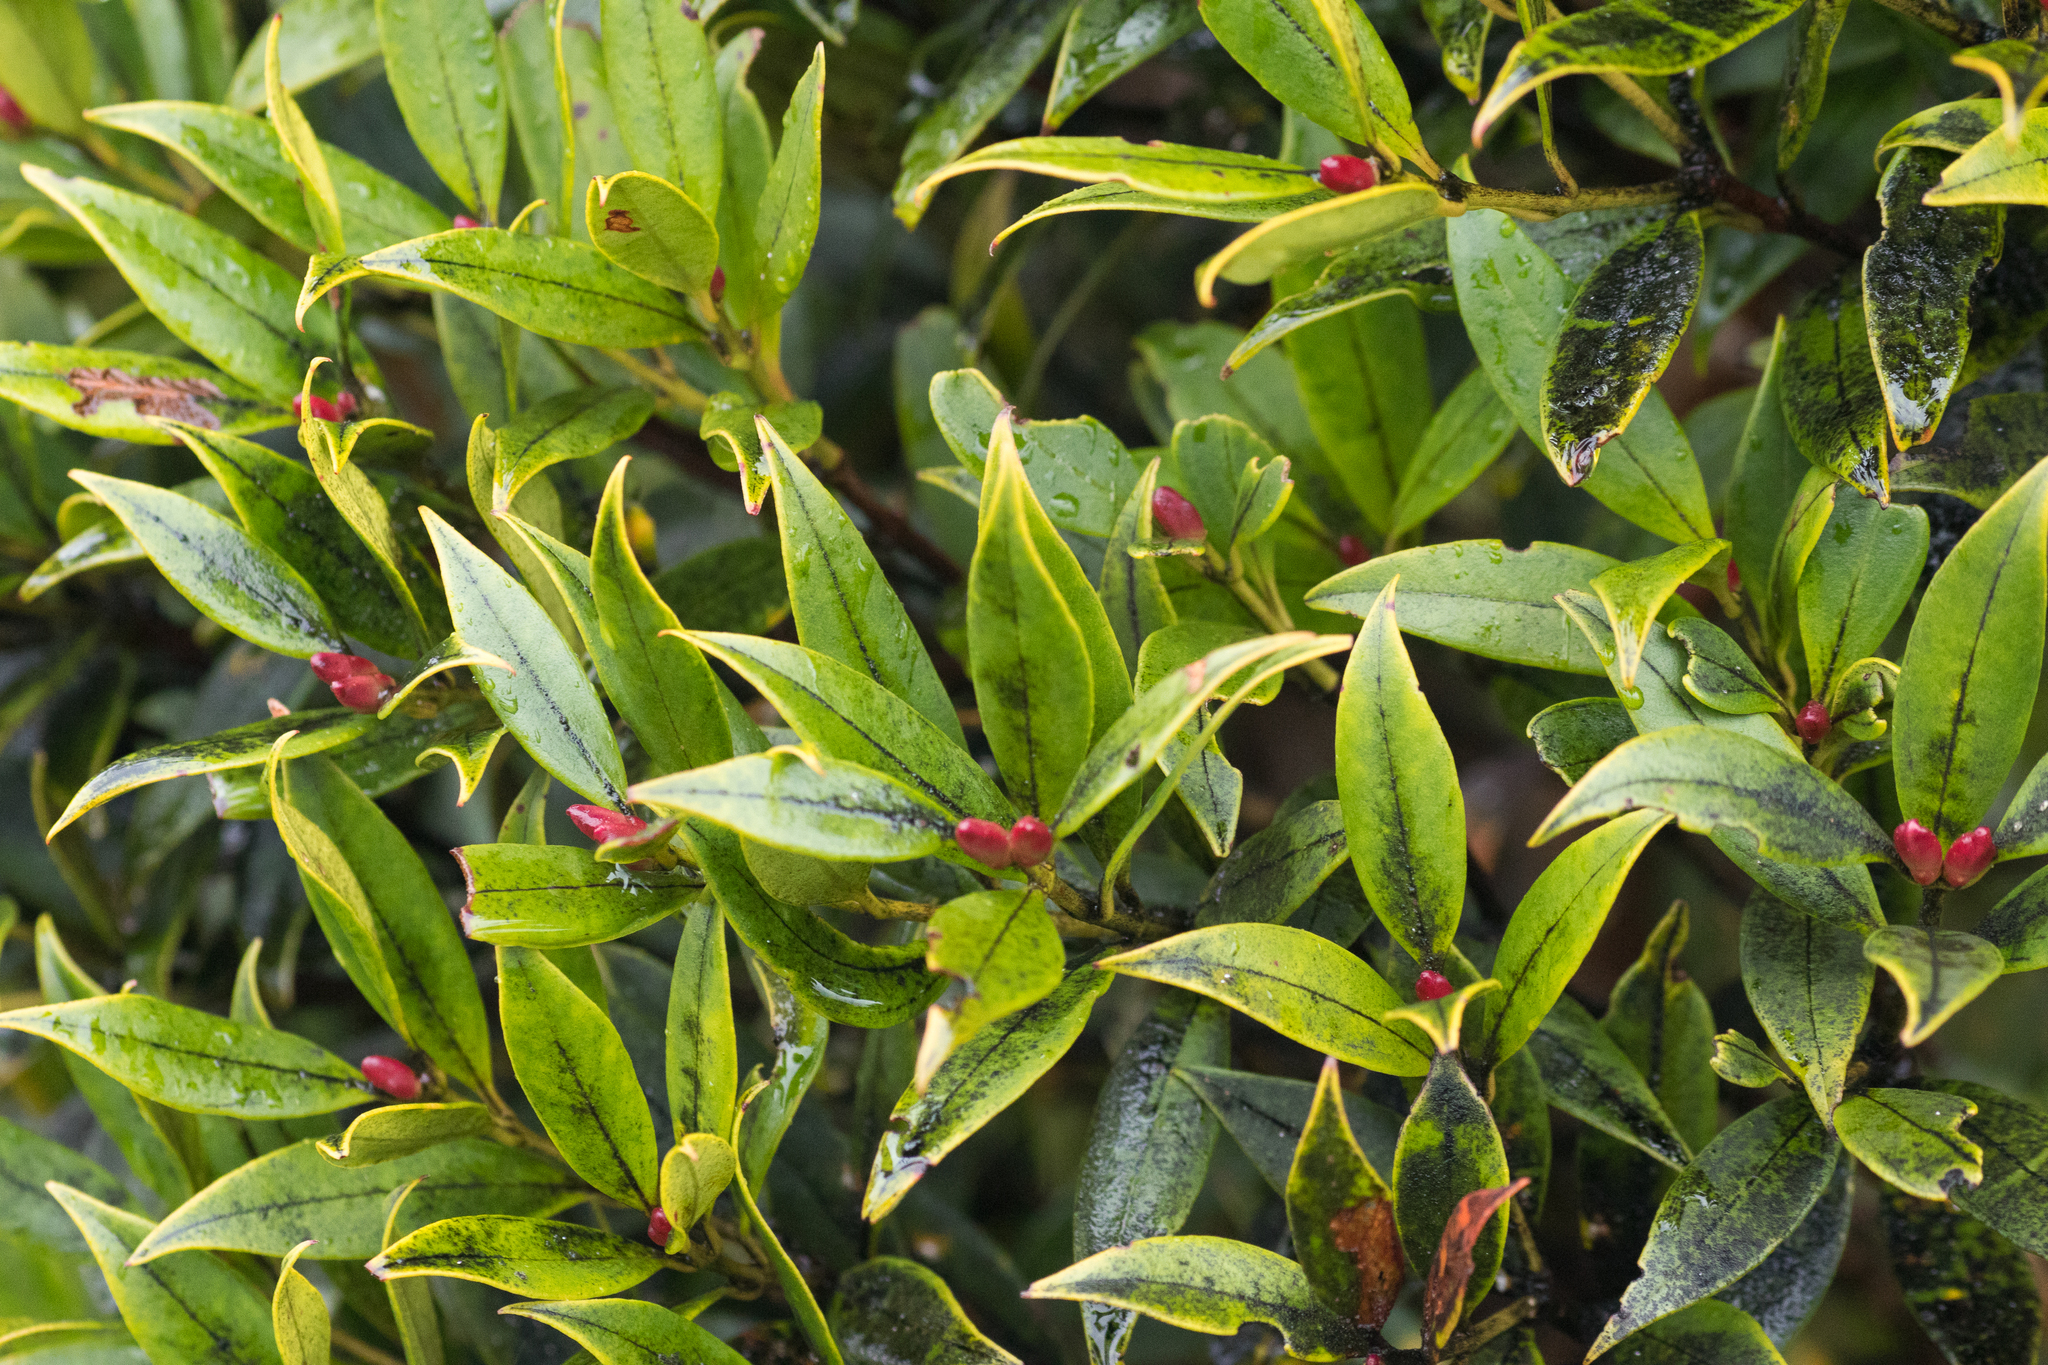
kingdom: Plantae
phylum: Tracheophyta
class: Magnoliopsida
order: Myrtales
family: Myrtaceae
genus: Metrosideros
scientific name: Metrosideros umbellata
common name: Southern rata
